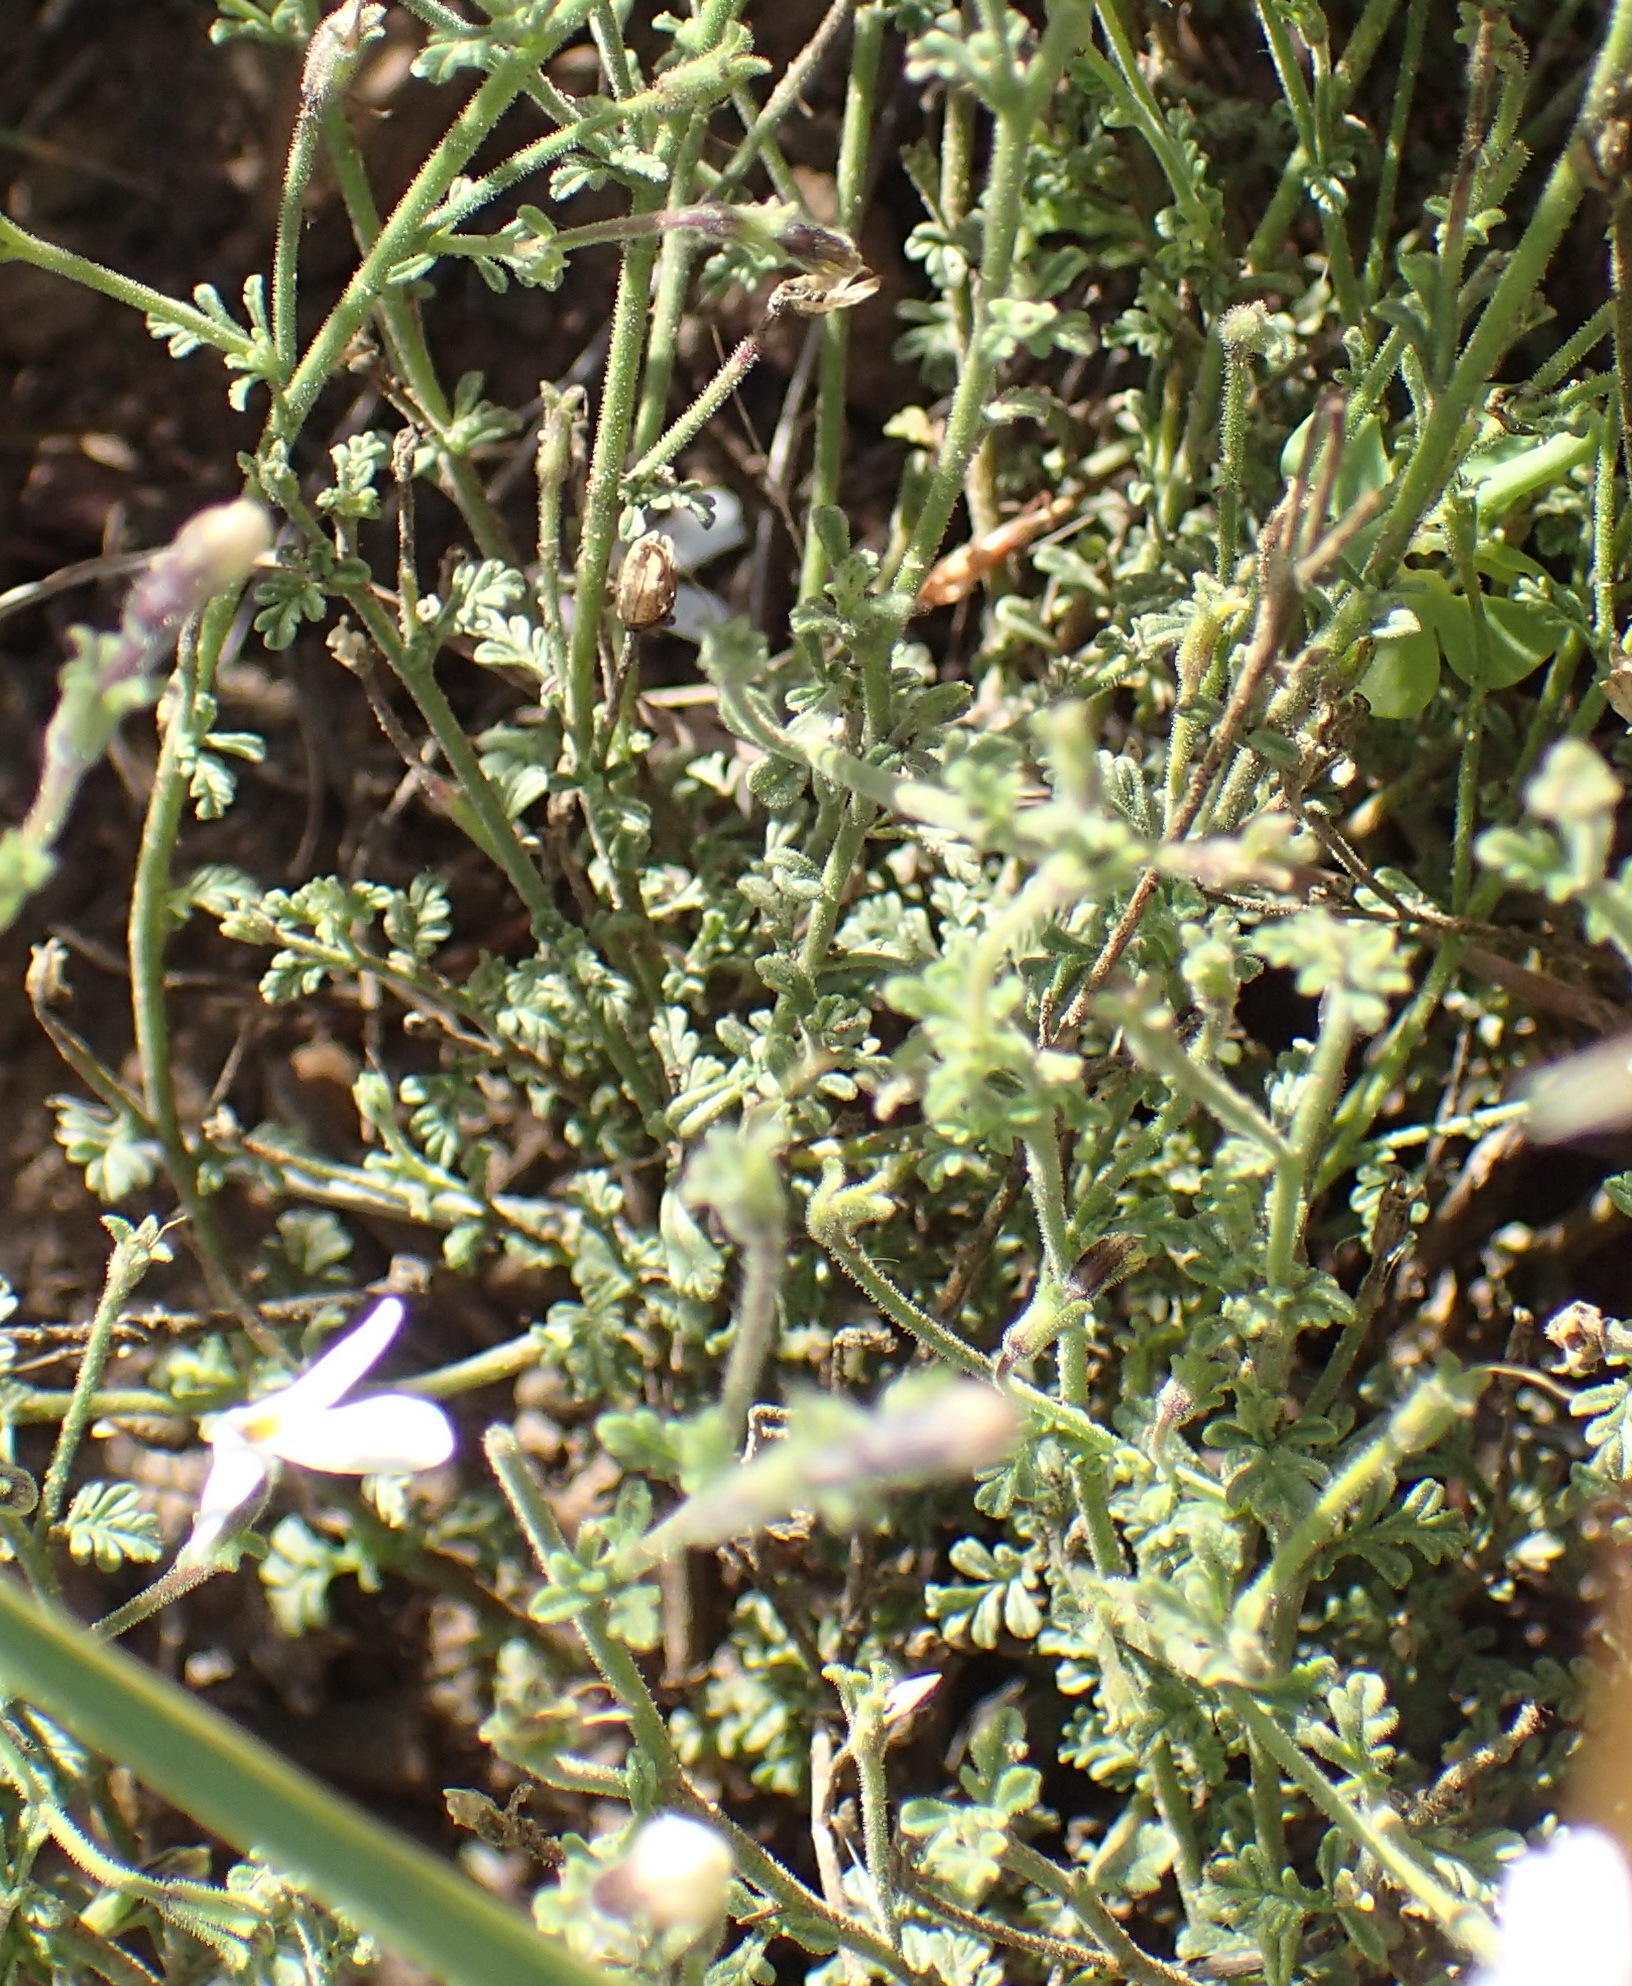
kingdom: Plantae
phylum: Tracheophyta
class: Magnoliopsida
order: Lamiales
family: Scrophulariaceae
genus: Jamesbrittenia
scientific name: Jamesbrittenia tysonii
